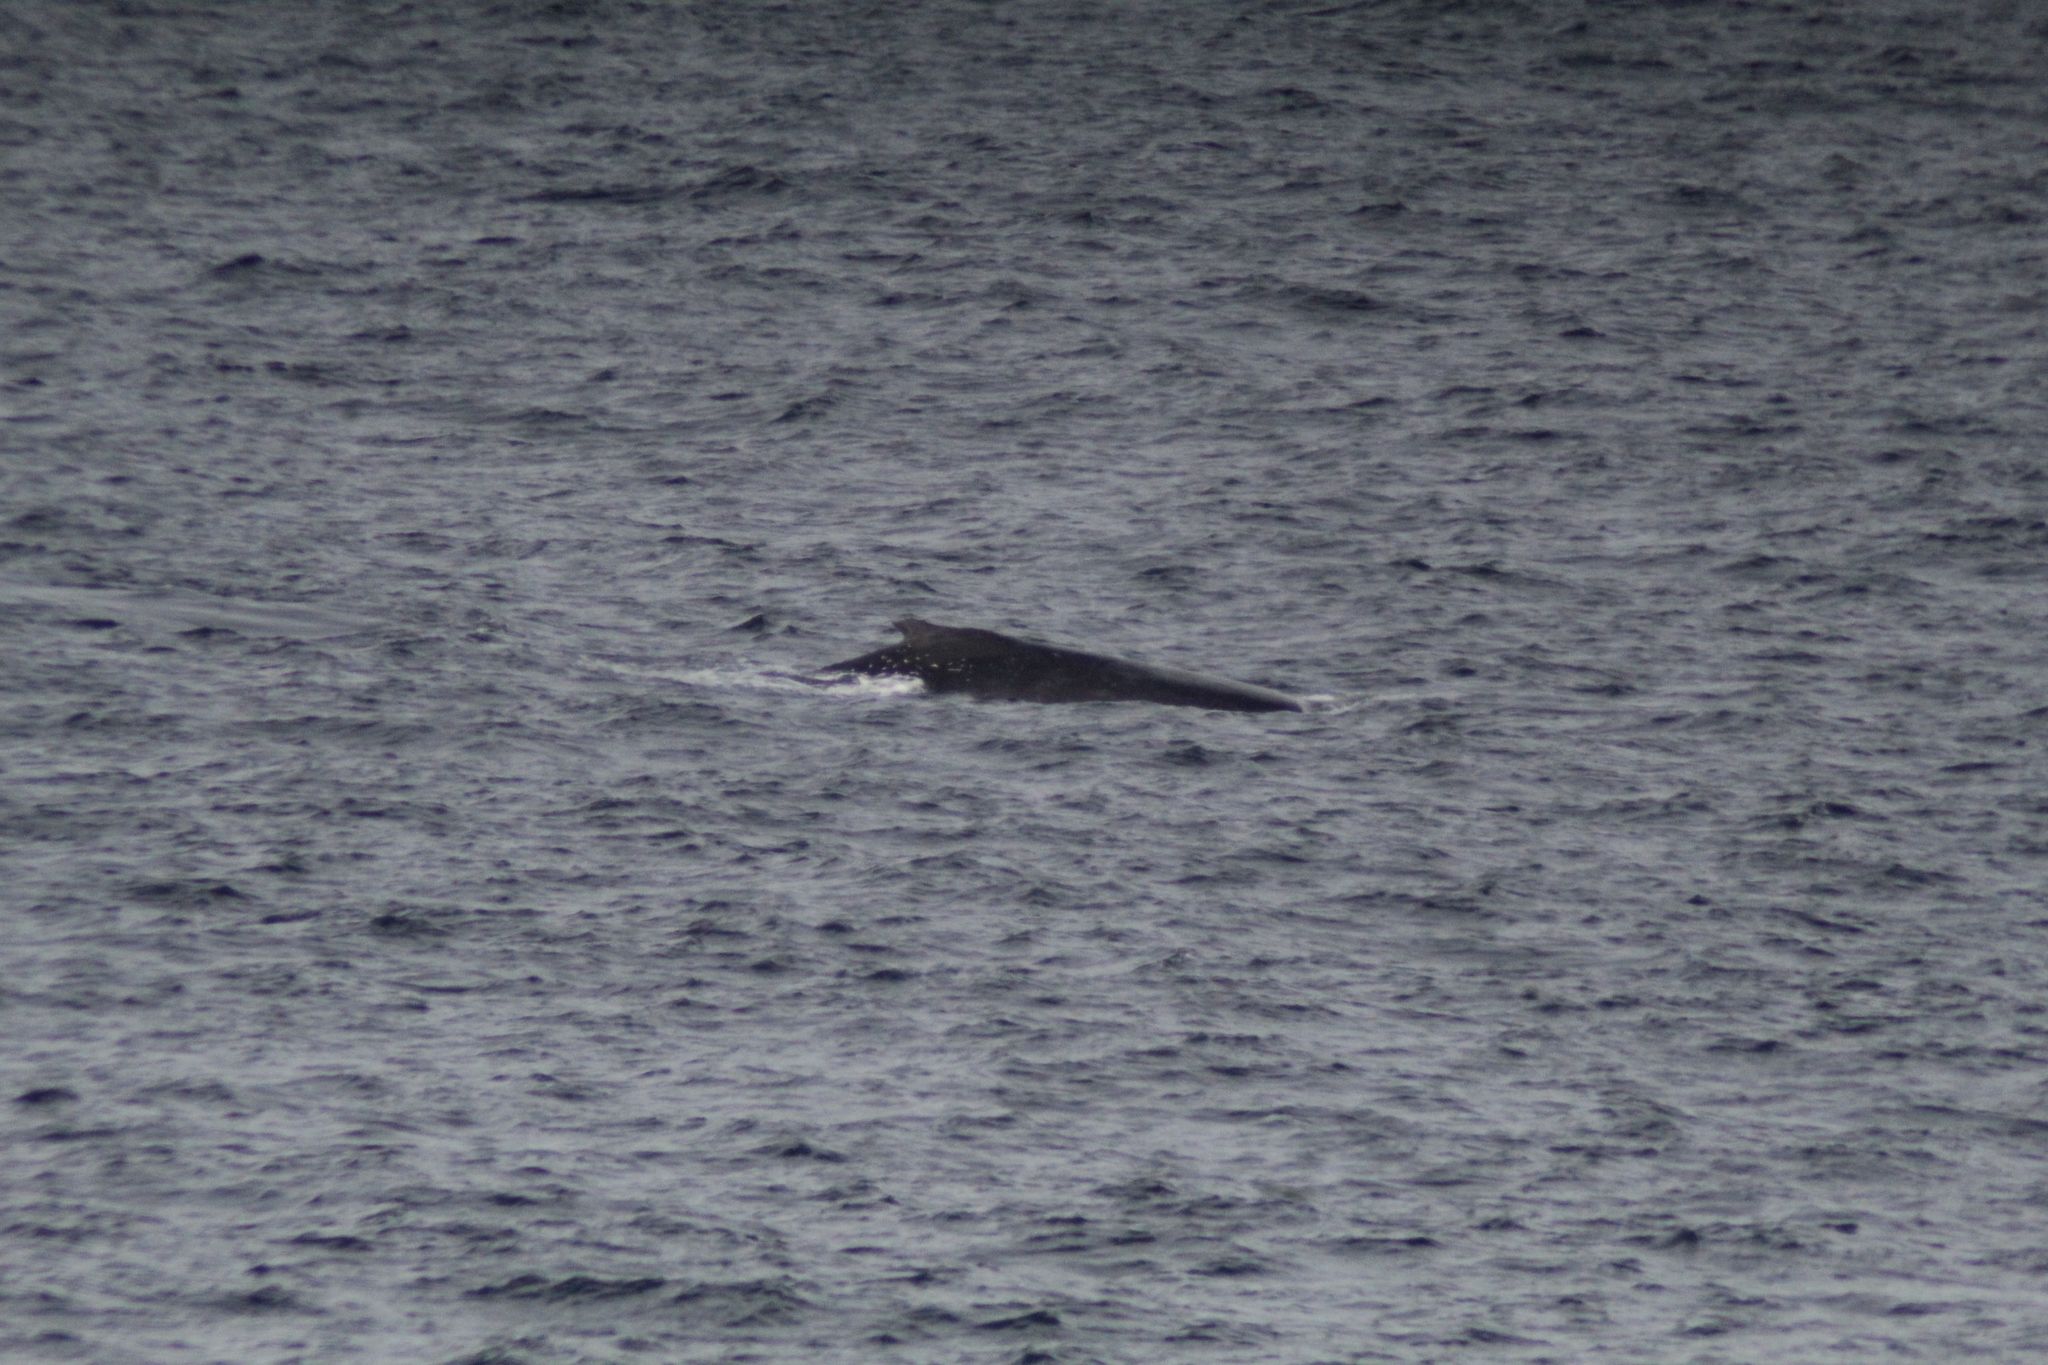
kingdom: Animalia
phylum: Chordata
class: Mammalia
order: Cetacea
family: Balaenopteridae
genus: Megaptera
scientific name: Megaptera novaeangliae
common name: Humpback whale
